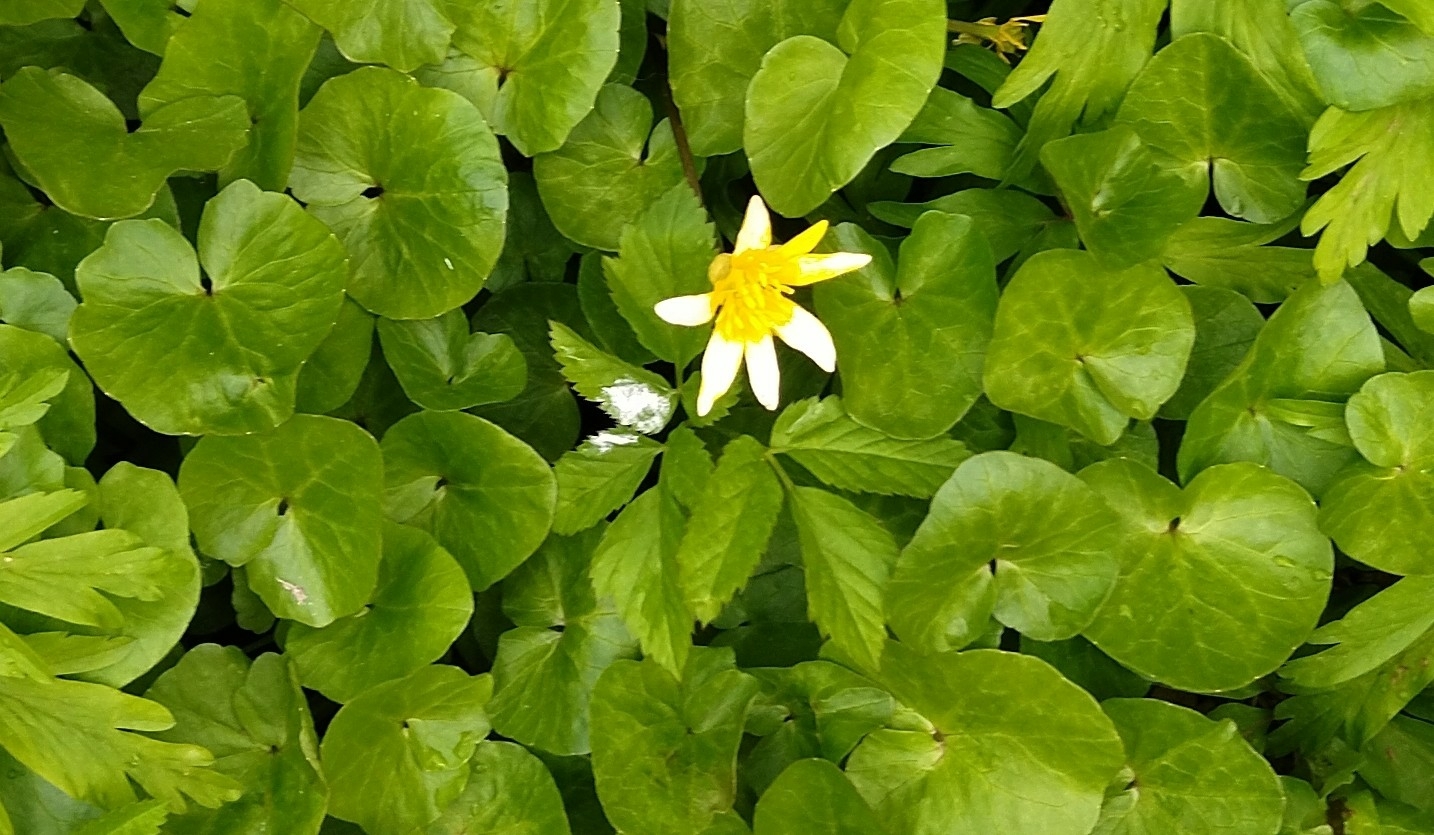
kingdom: Plantae
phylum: Tracheophyta
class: Magnoliopsida
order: Ranunculales
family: Ranunculaceae
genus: Ficaria
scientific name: Ficaria verna
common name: Lesser celandine
